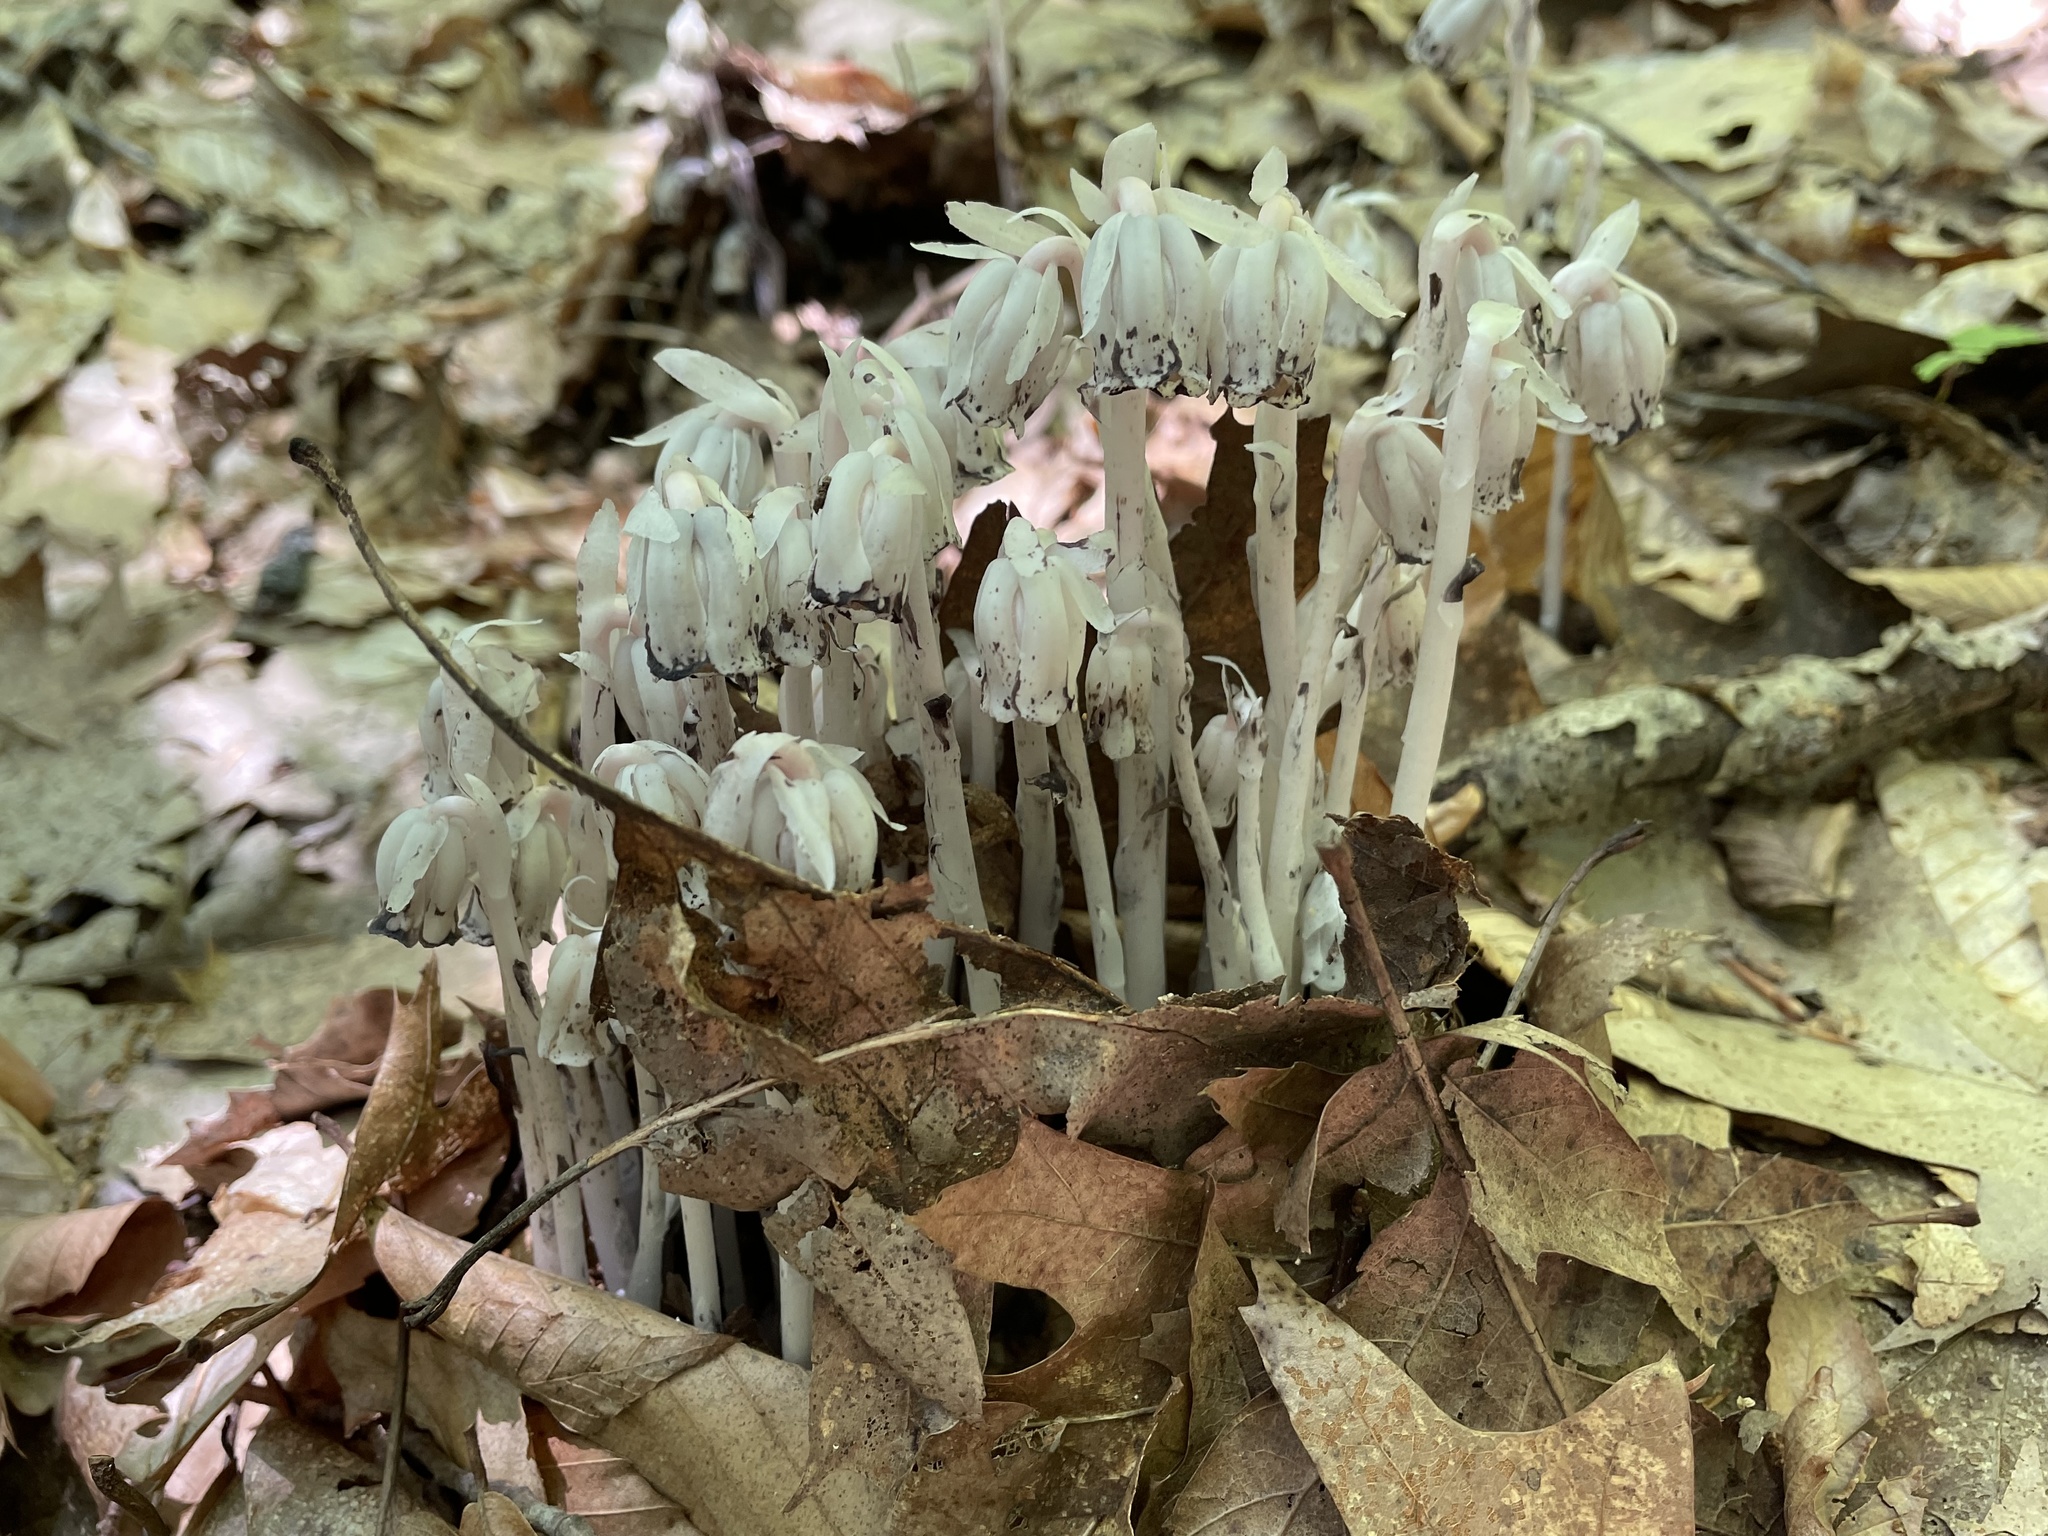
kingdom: Plantae
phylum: Tracheophyta
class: Magnoliopsida
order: Ericales
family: Ericaceae
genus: Monotropa
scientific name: Monotropa uniflora
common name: Convulsion root
